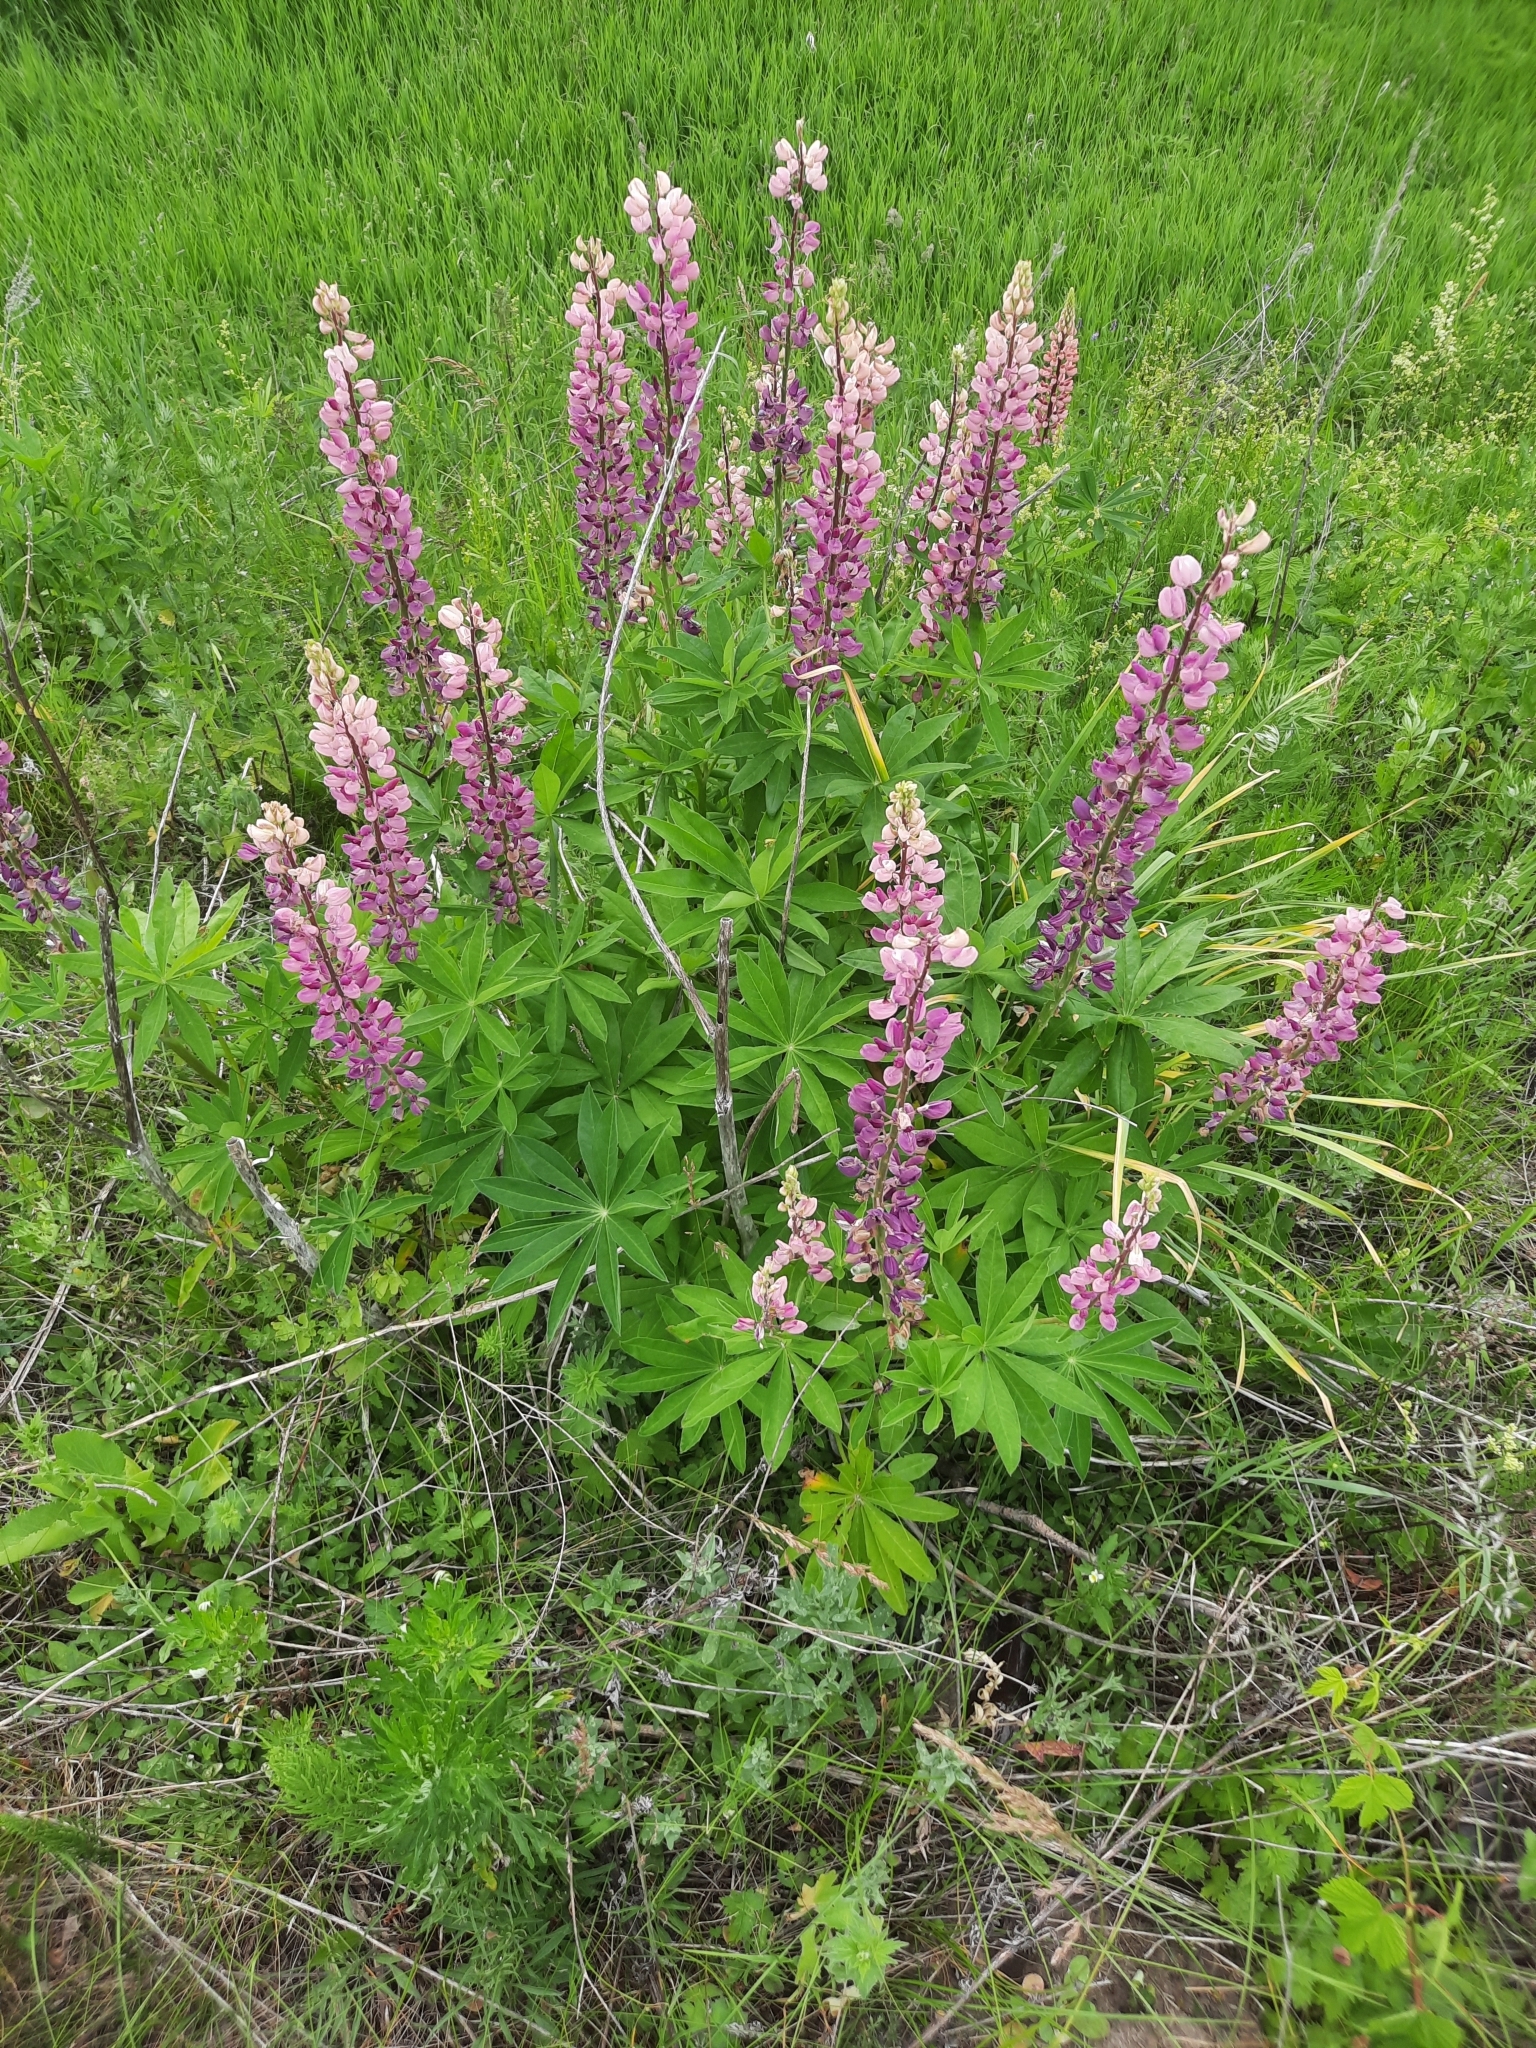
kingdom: Plantae
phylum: Tracheophyta
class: Magnoliopsida
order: Fabales
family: Fabaceae
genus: Lupinus
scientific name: Lupinus polyphyllus
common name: Garden lupin
